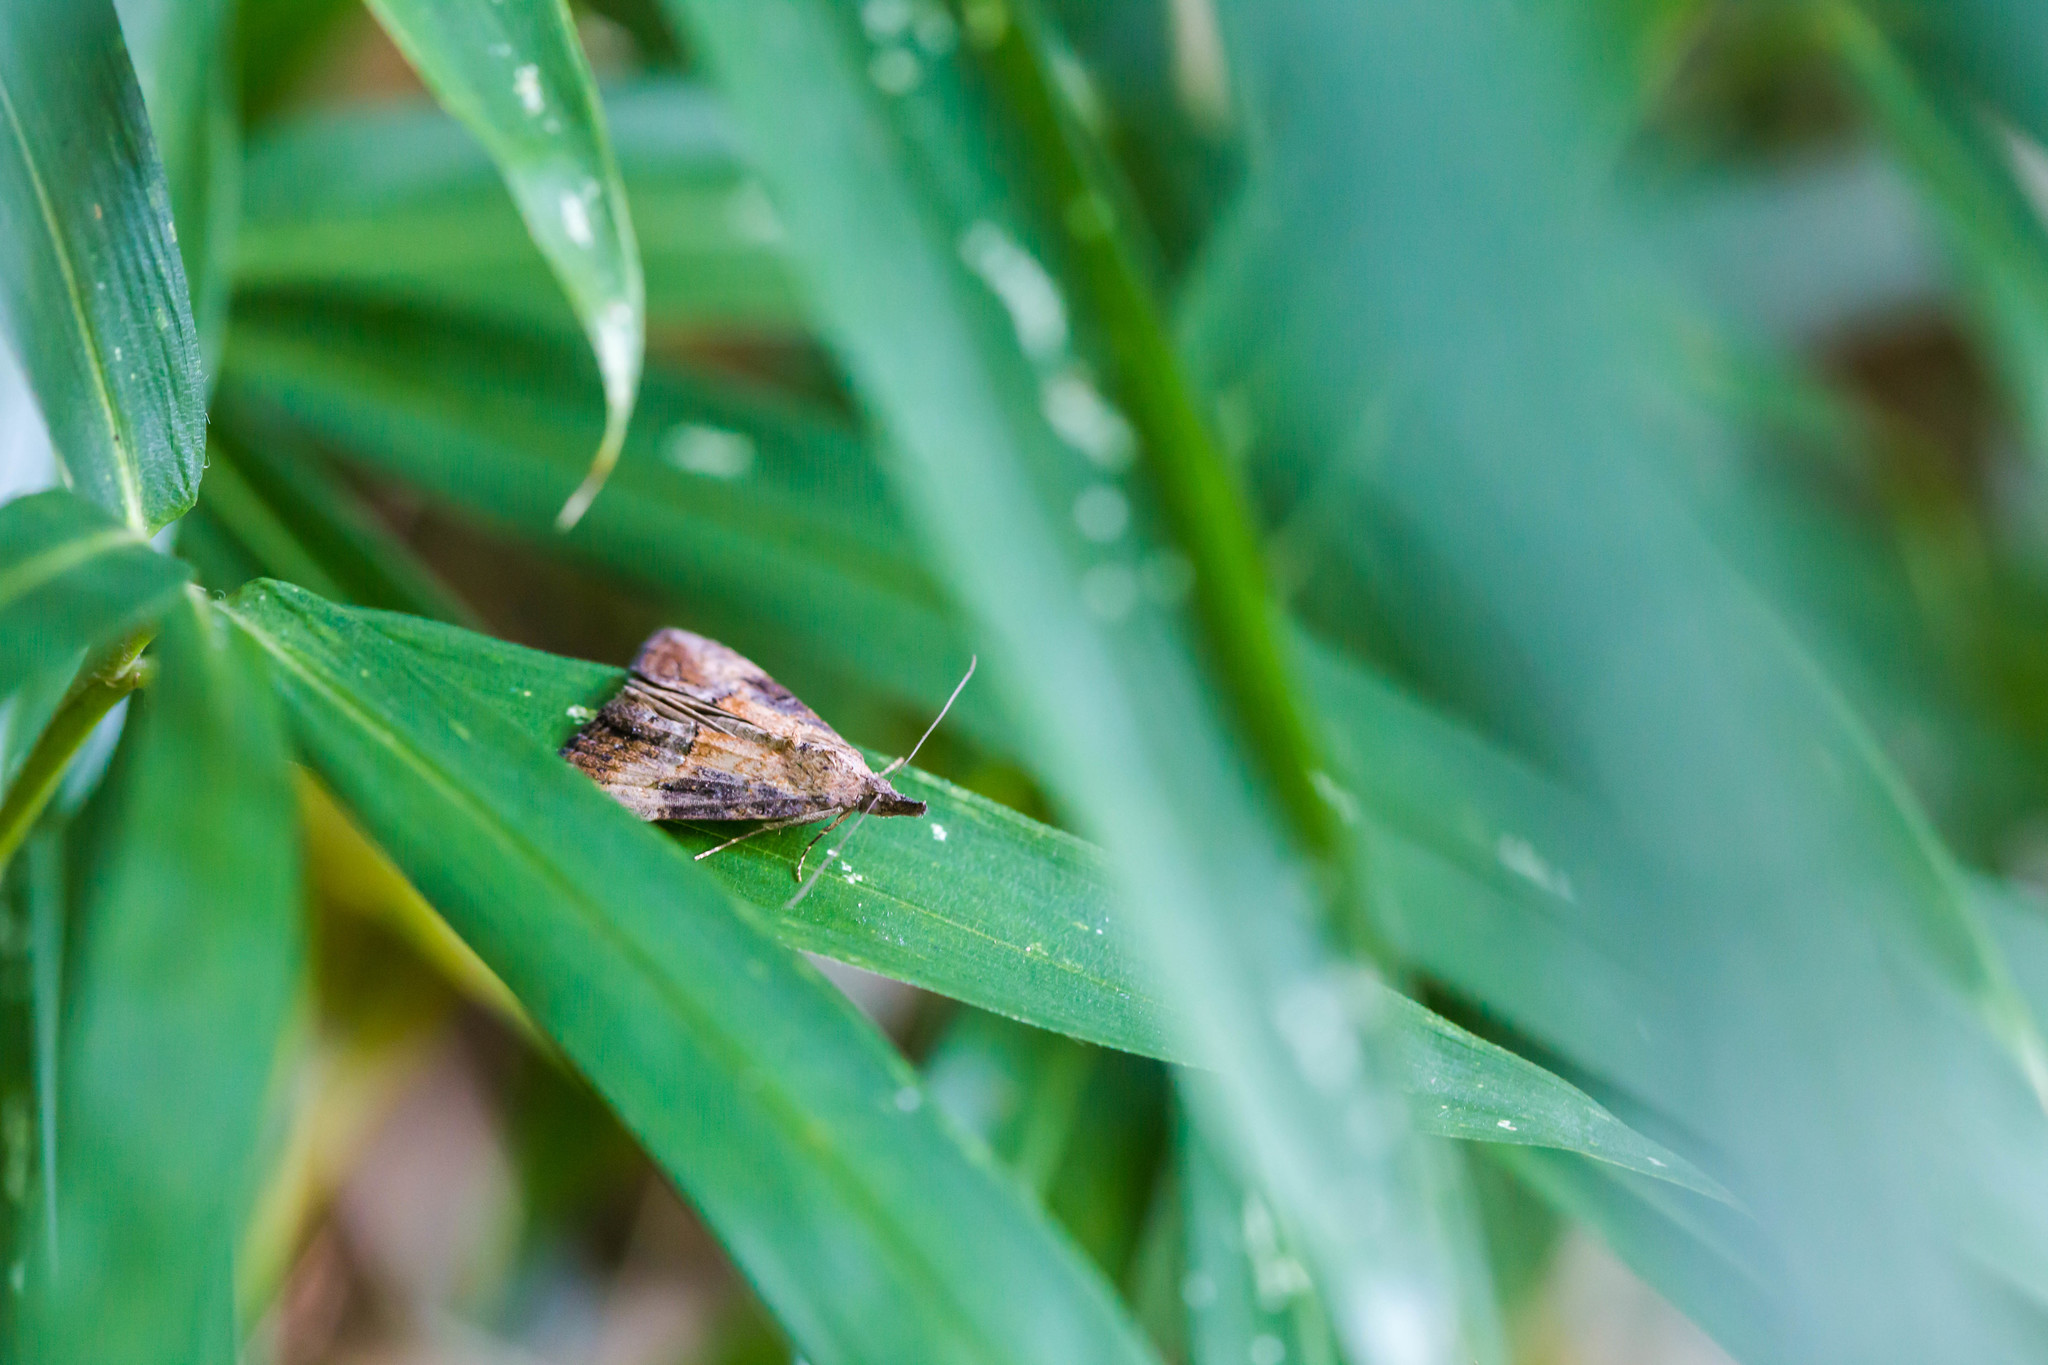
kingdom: Animalia
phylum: Arthropoda
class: Insecta
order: Lepidoptera
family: Erebidae
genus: Hypena
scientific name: Hypena scabra
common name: Green cloverworm
